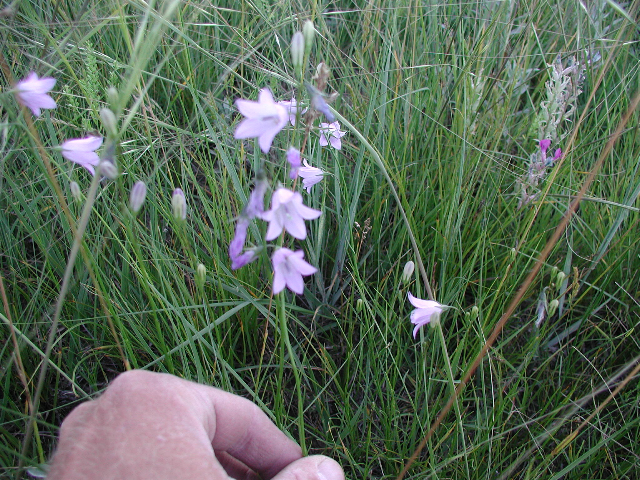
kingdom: Plantae
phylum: Tracheophyta
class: Magnoliopsida
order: Asterales
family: Campanulaceae
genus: Campanula
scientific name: Campanula petiolata
